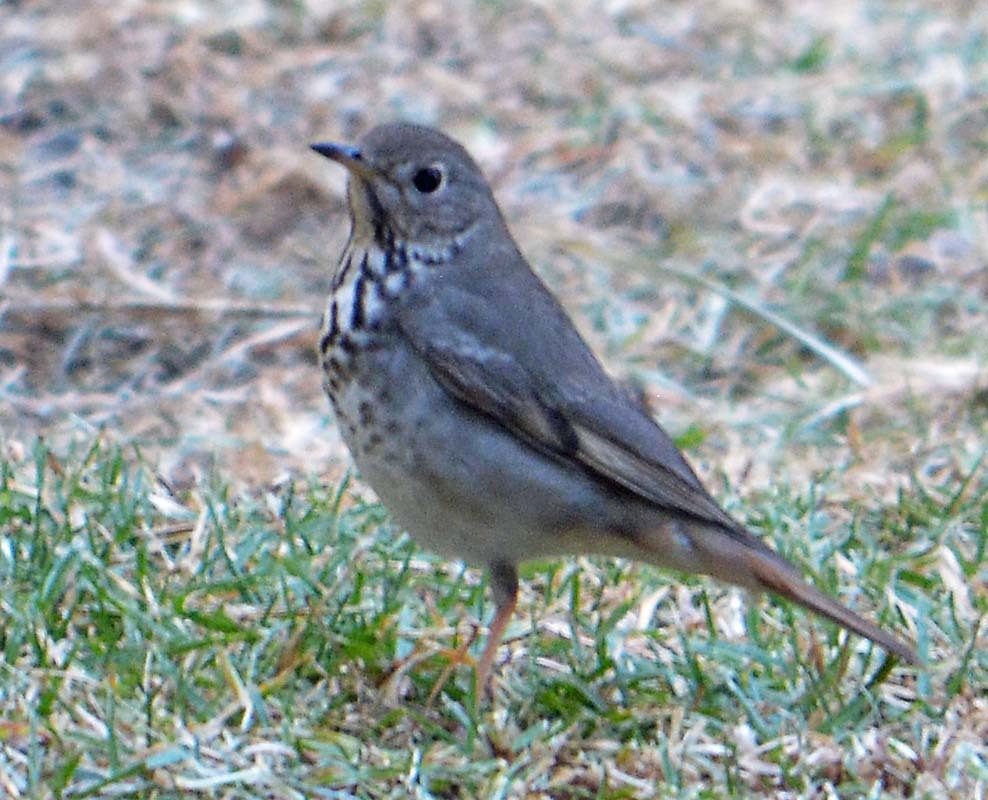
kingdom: Animalia
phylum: Chordata
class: Aves
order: Passeriformes
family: Turdidae
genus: Catharus
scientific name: Catharus guttatus
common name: Hermit thrush
